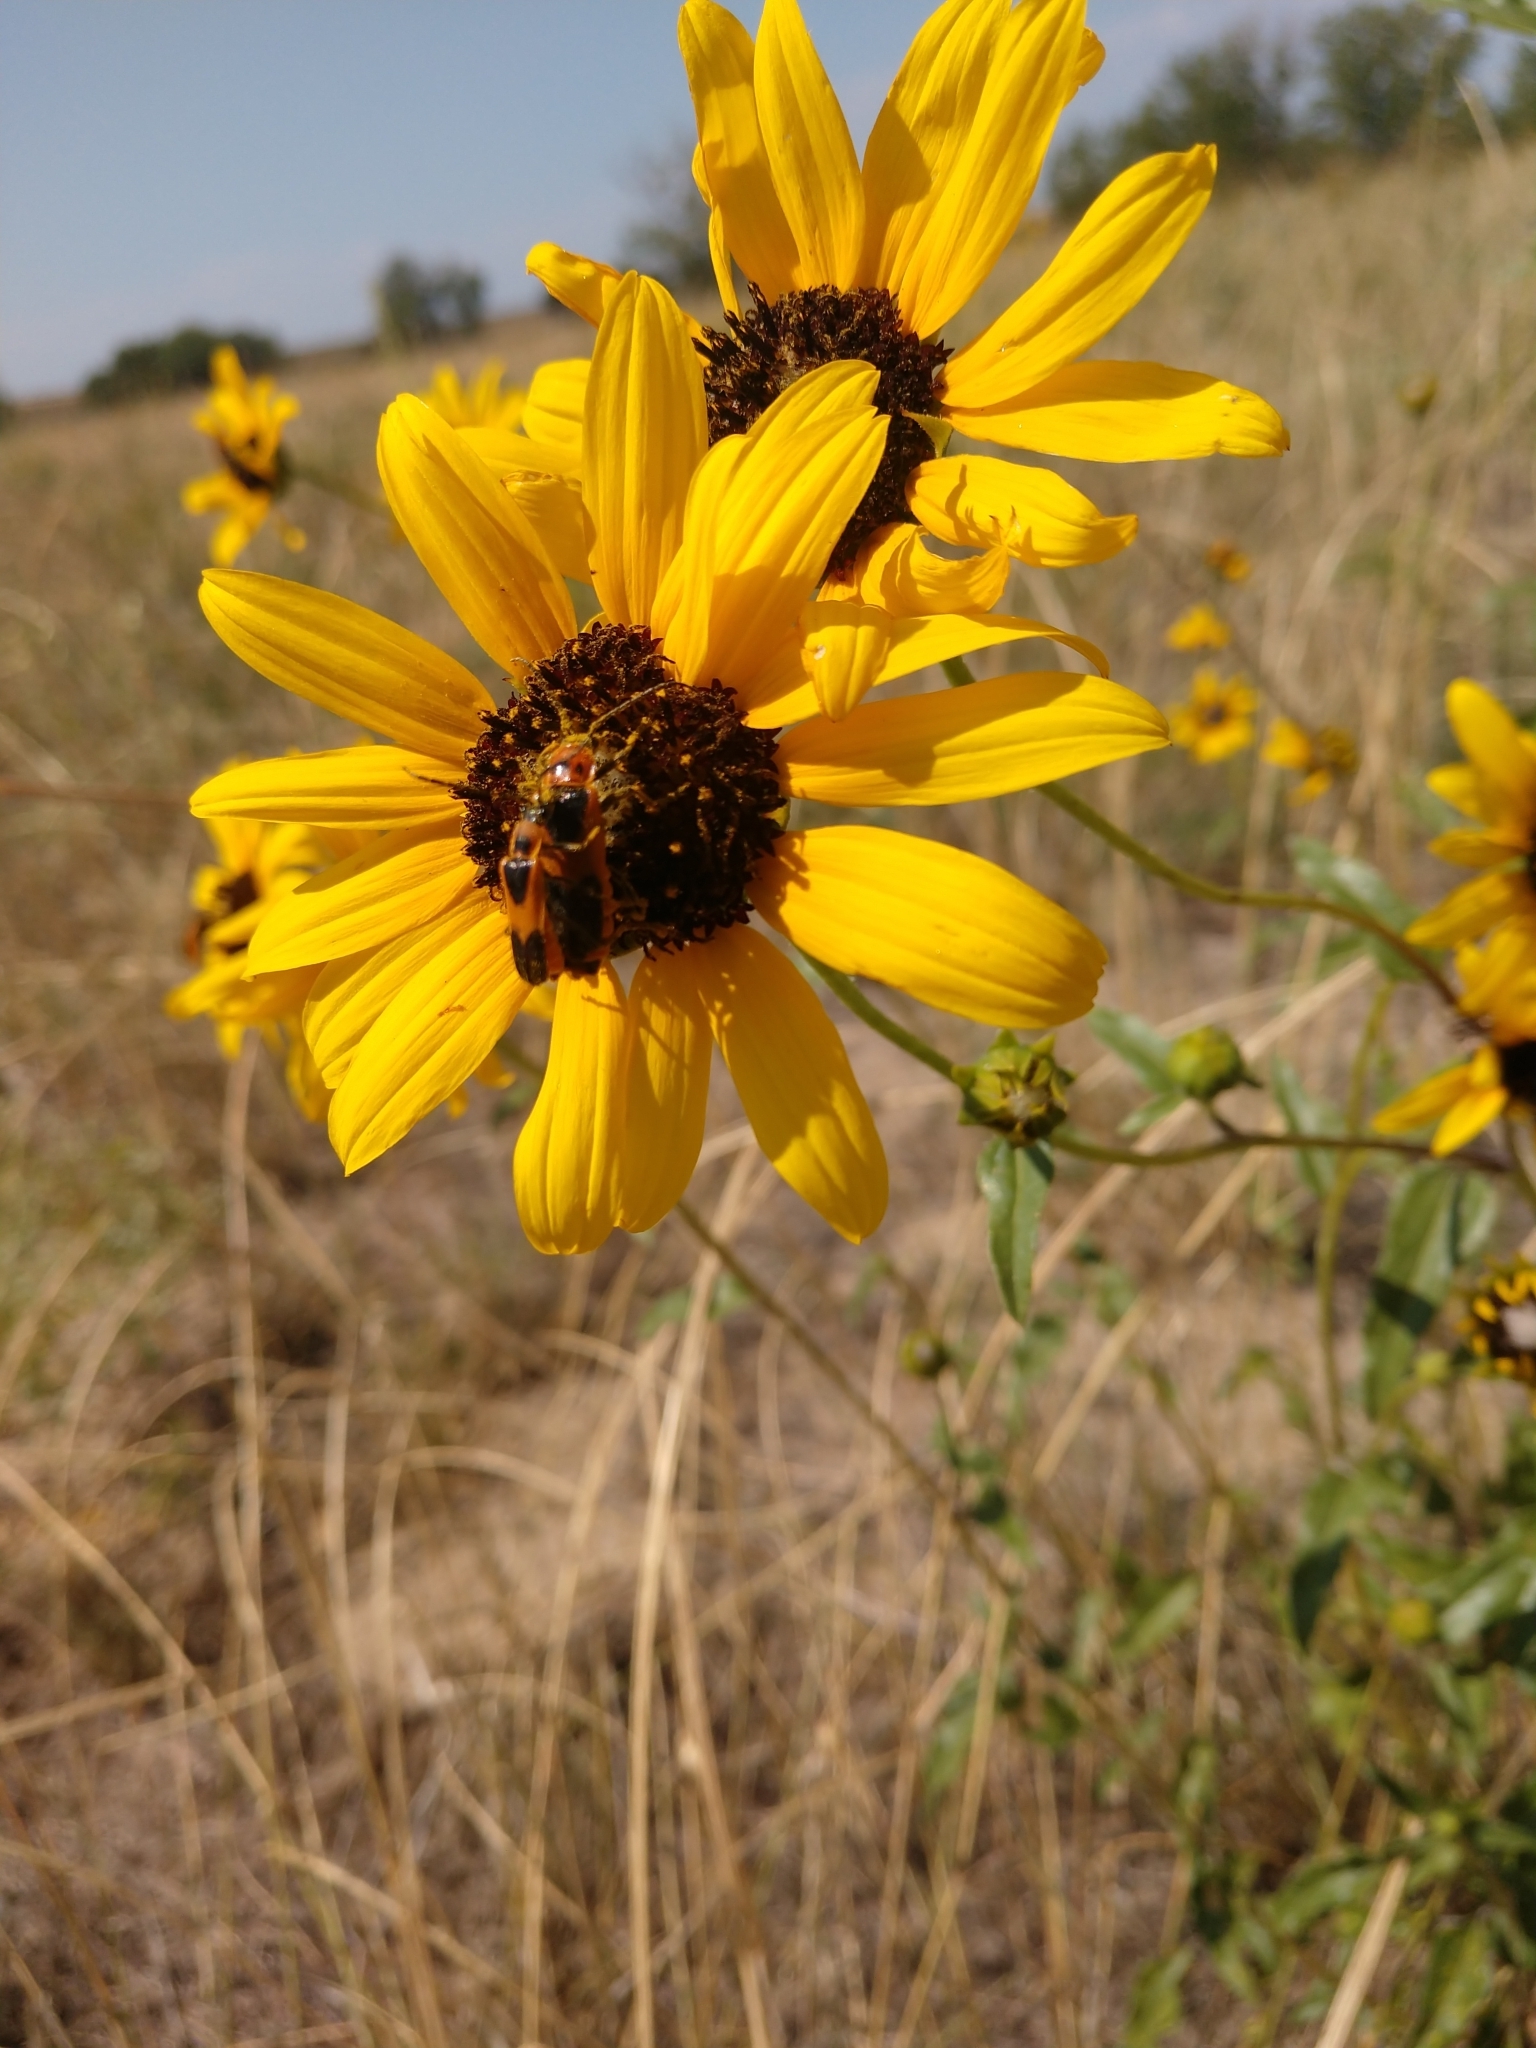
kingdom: Animalia
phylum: Arthropoda
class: Insecta
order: Coleoptera
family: Cantharidae
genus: Chauliognathus
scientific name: Chauliognathus basalis
